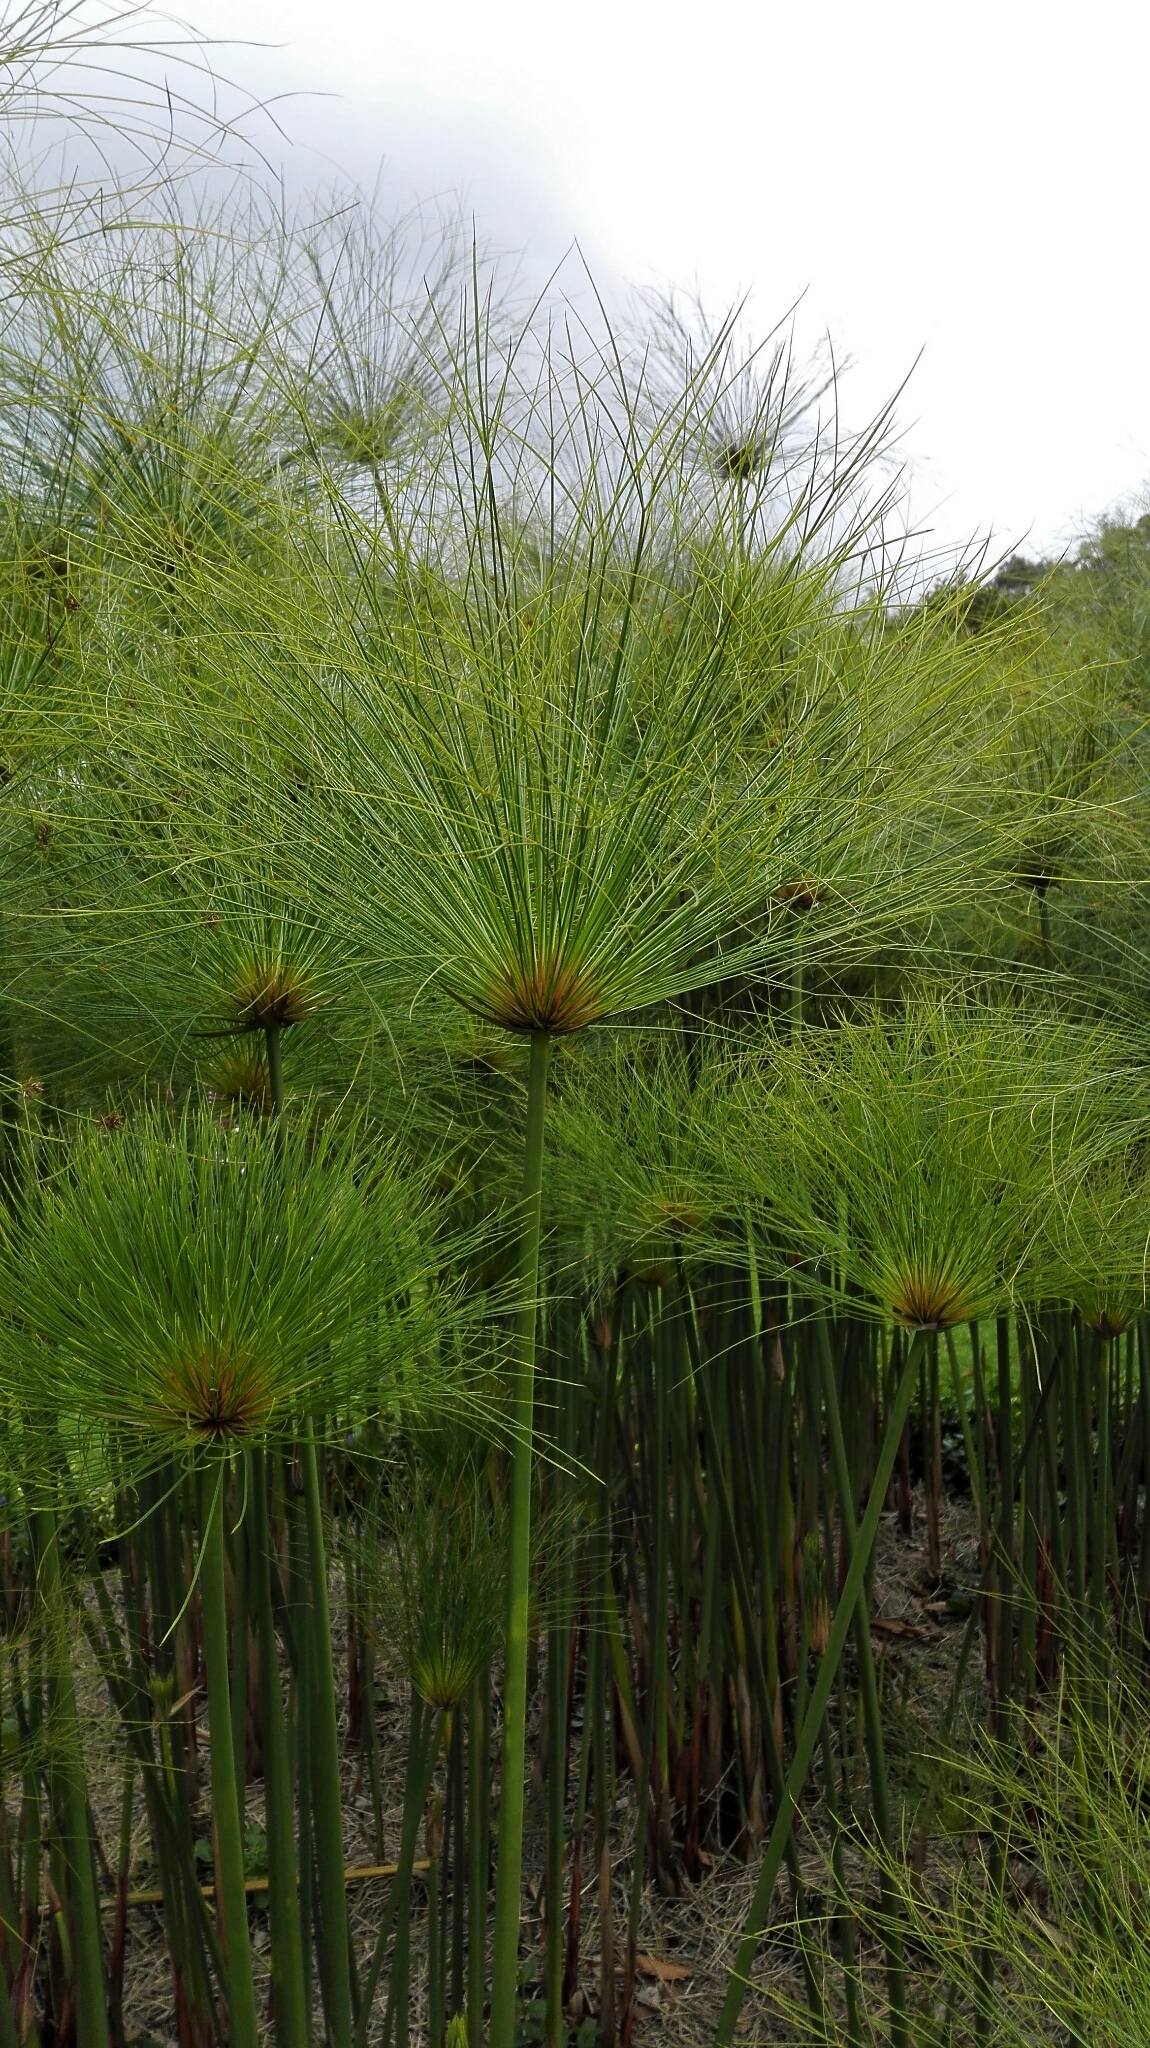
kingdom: Plantae
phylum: Tracheophyta
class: Liliopsida
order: Poales
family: Cyperaceae
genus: Cyperus
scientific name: Cyperus papyrus
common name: Papyrus
